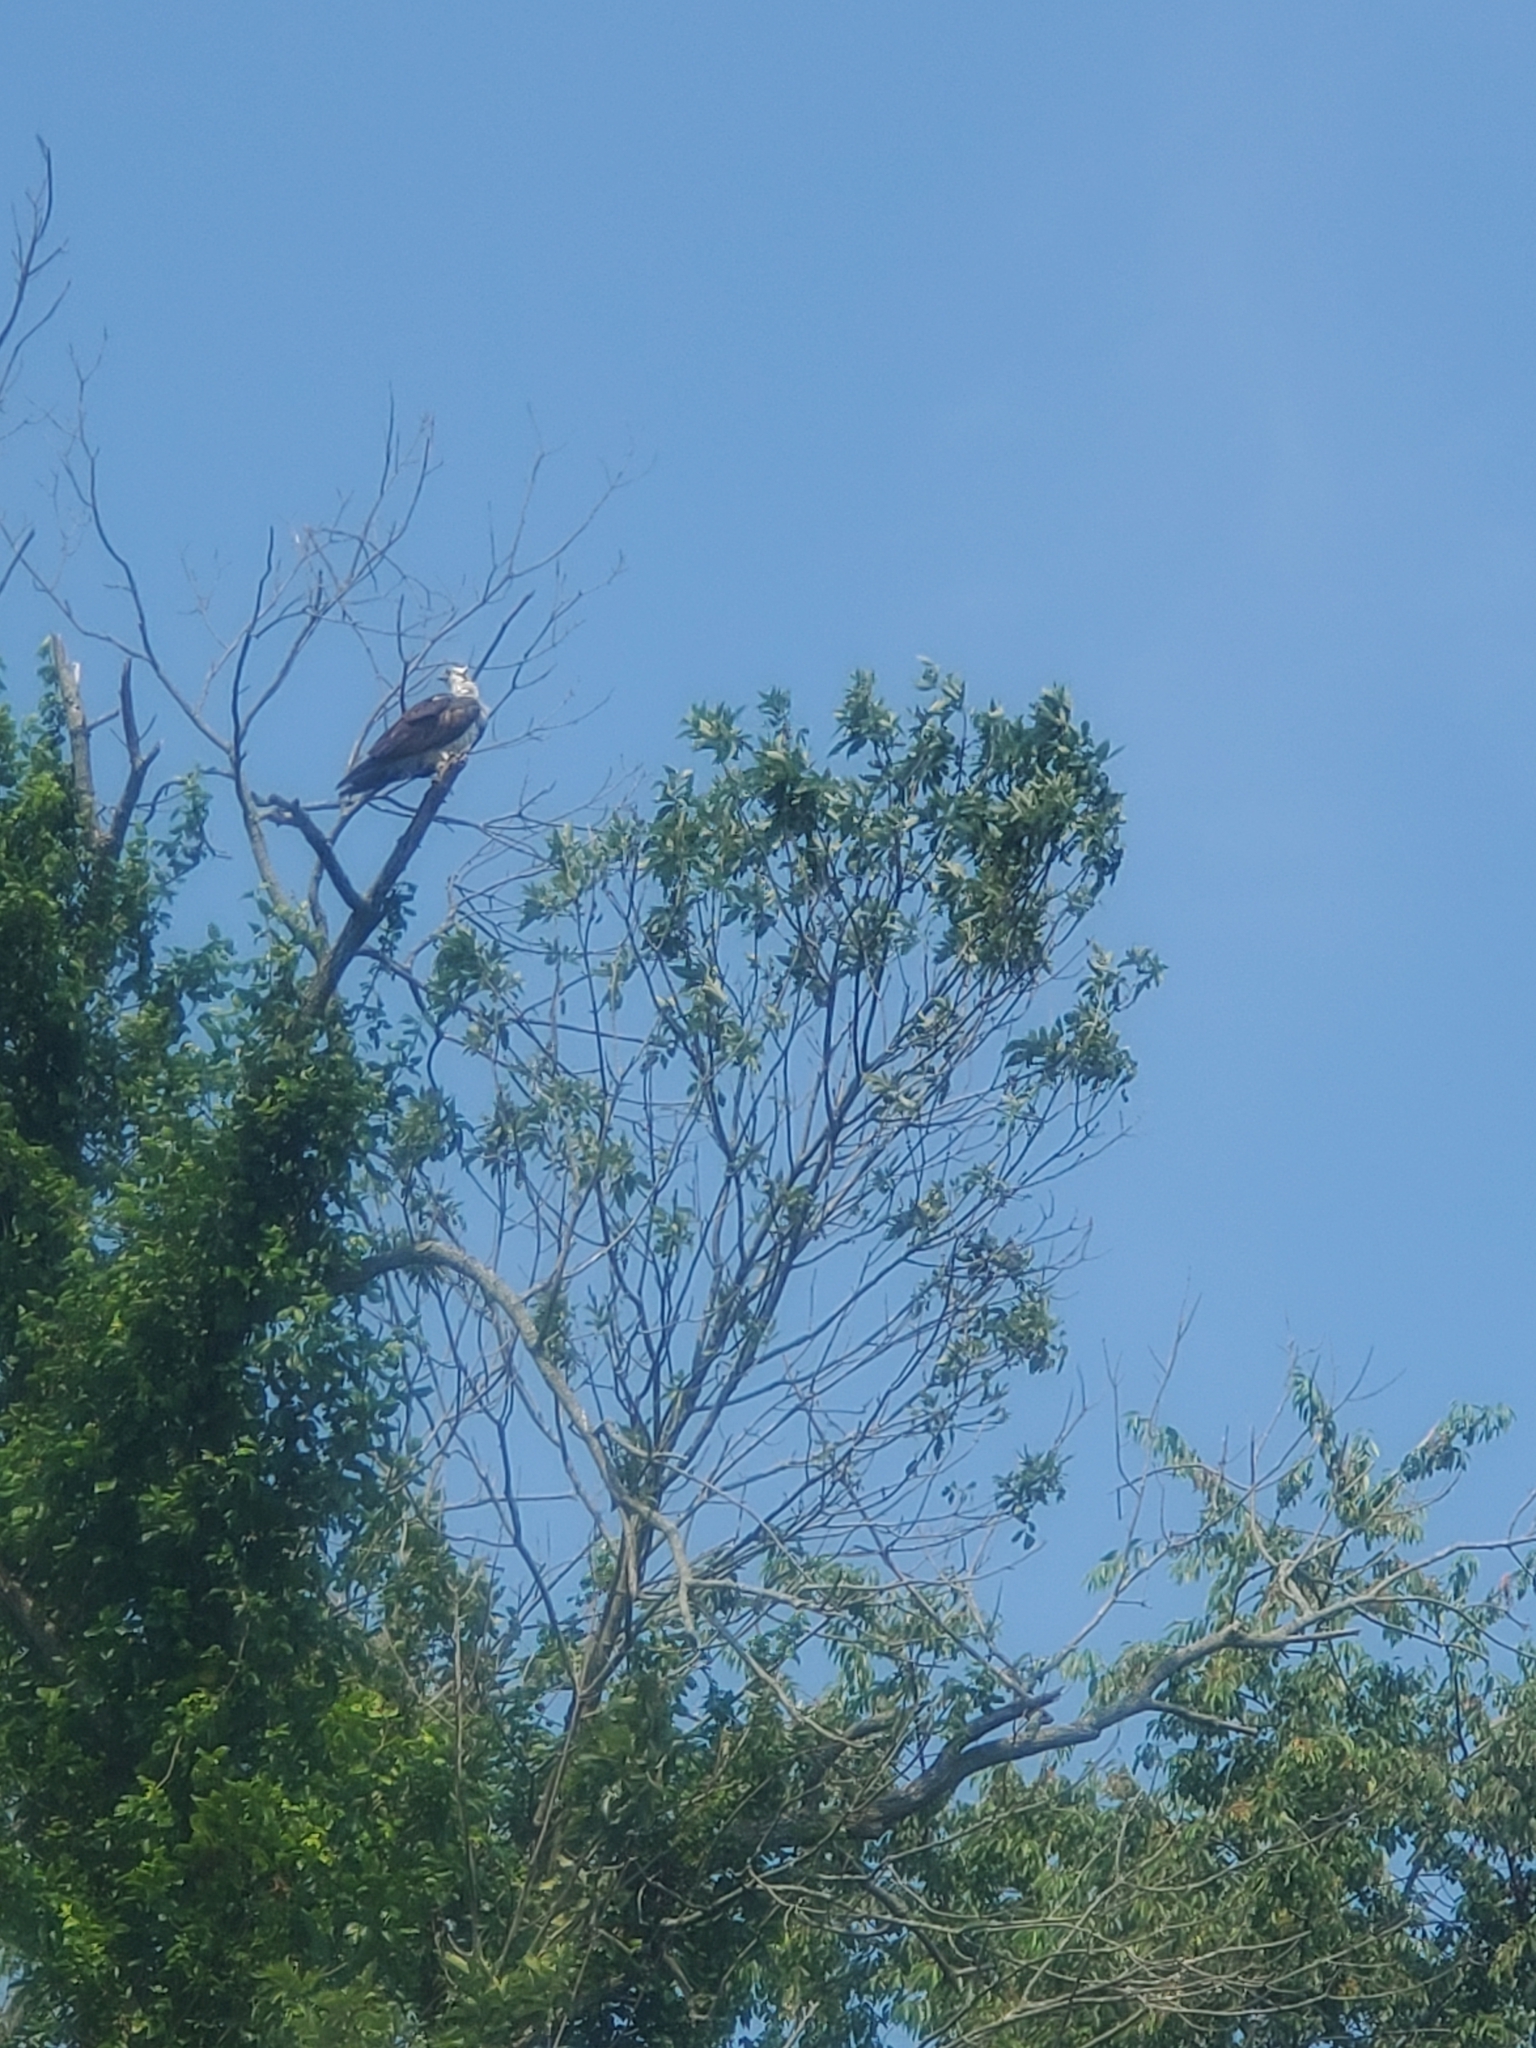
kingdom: Animalia
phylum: Chordata
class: Aves
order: Accipitriformes
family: Pandionidae
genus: Pandion
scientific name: Pandion haliaetus
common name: Osprey
